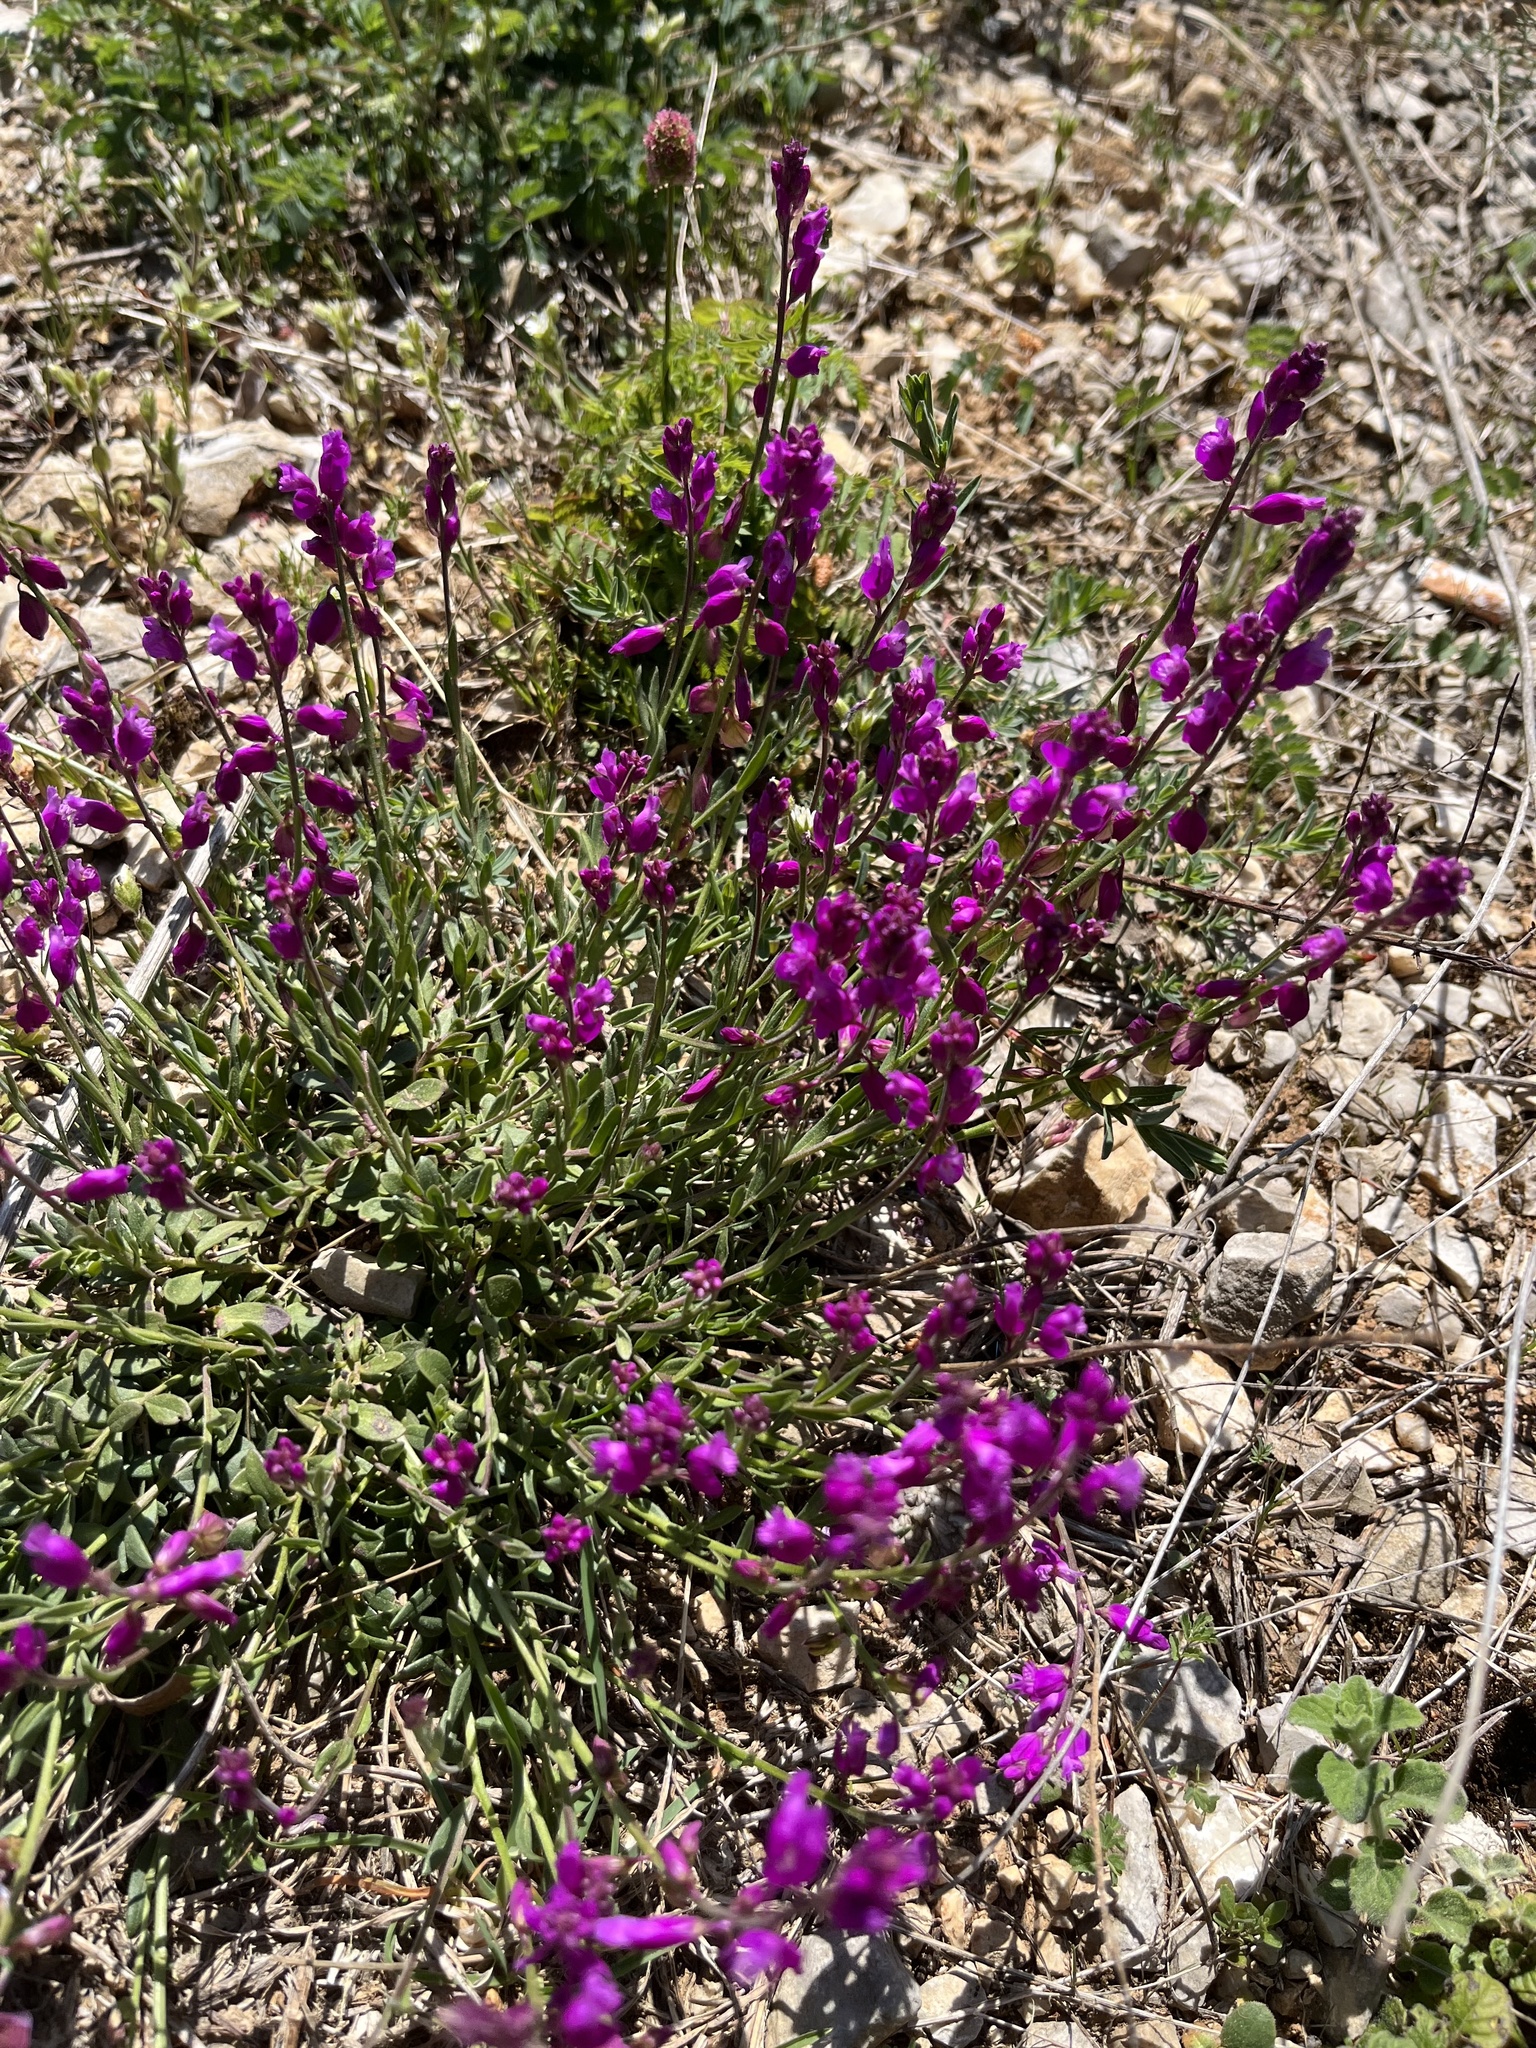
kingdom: Plantae
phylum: Tracheophyta
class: Magnoliopsida
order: Fabales
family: Polygalaceae
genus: Polygala
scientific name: Polygala nicaeensis
